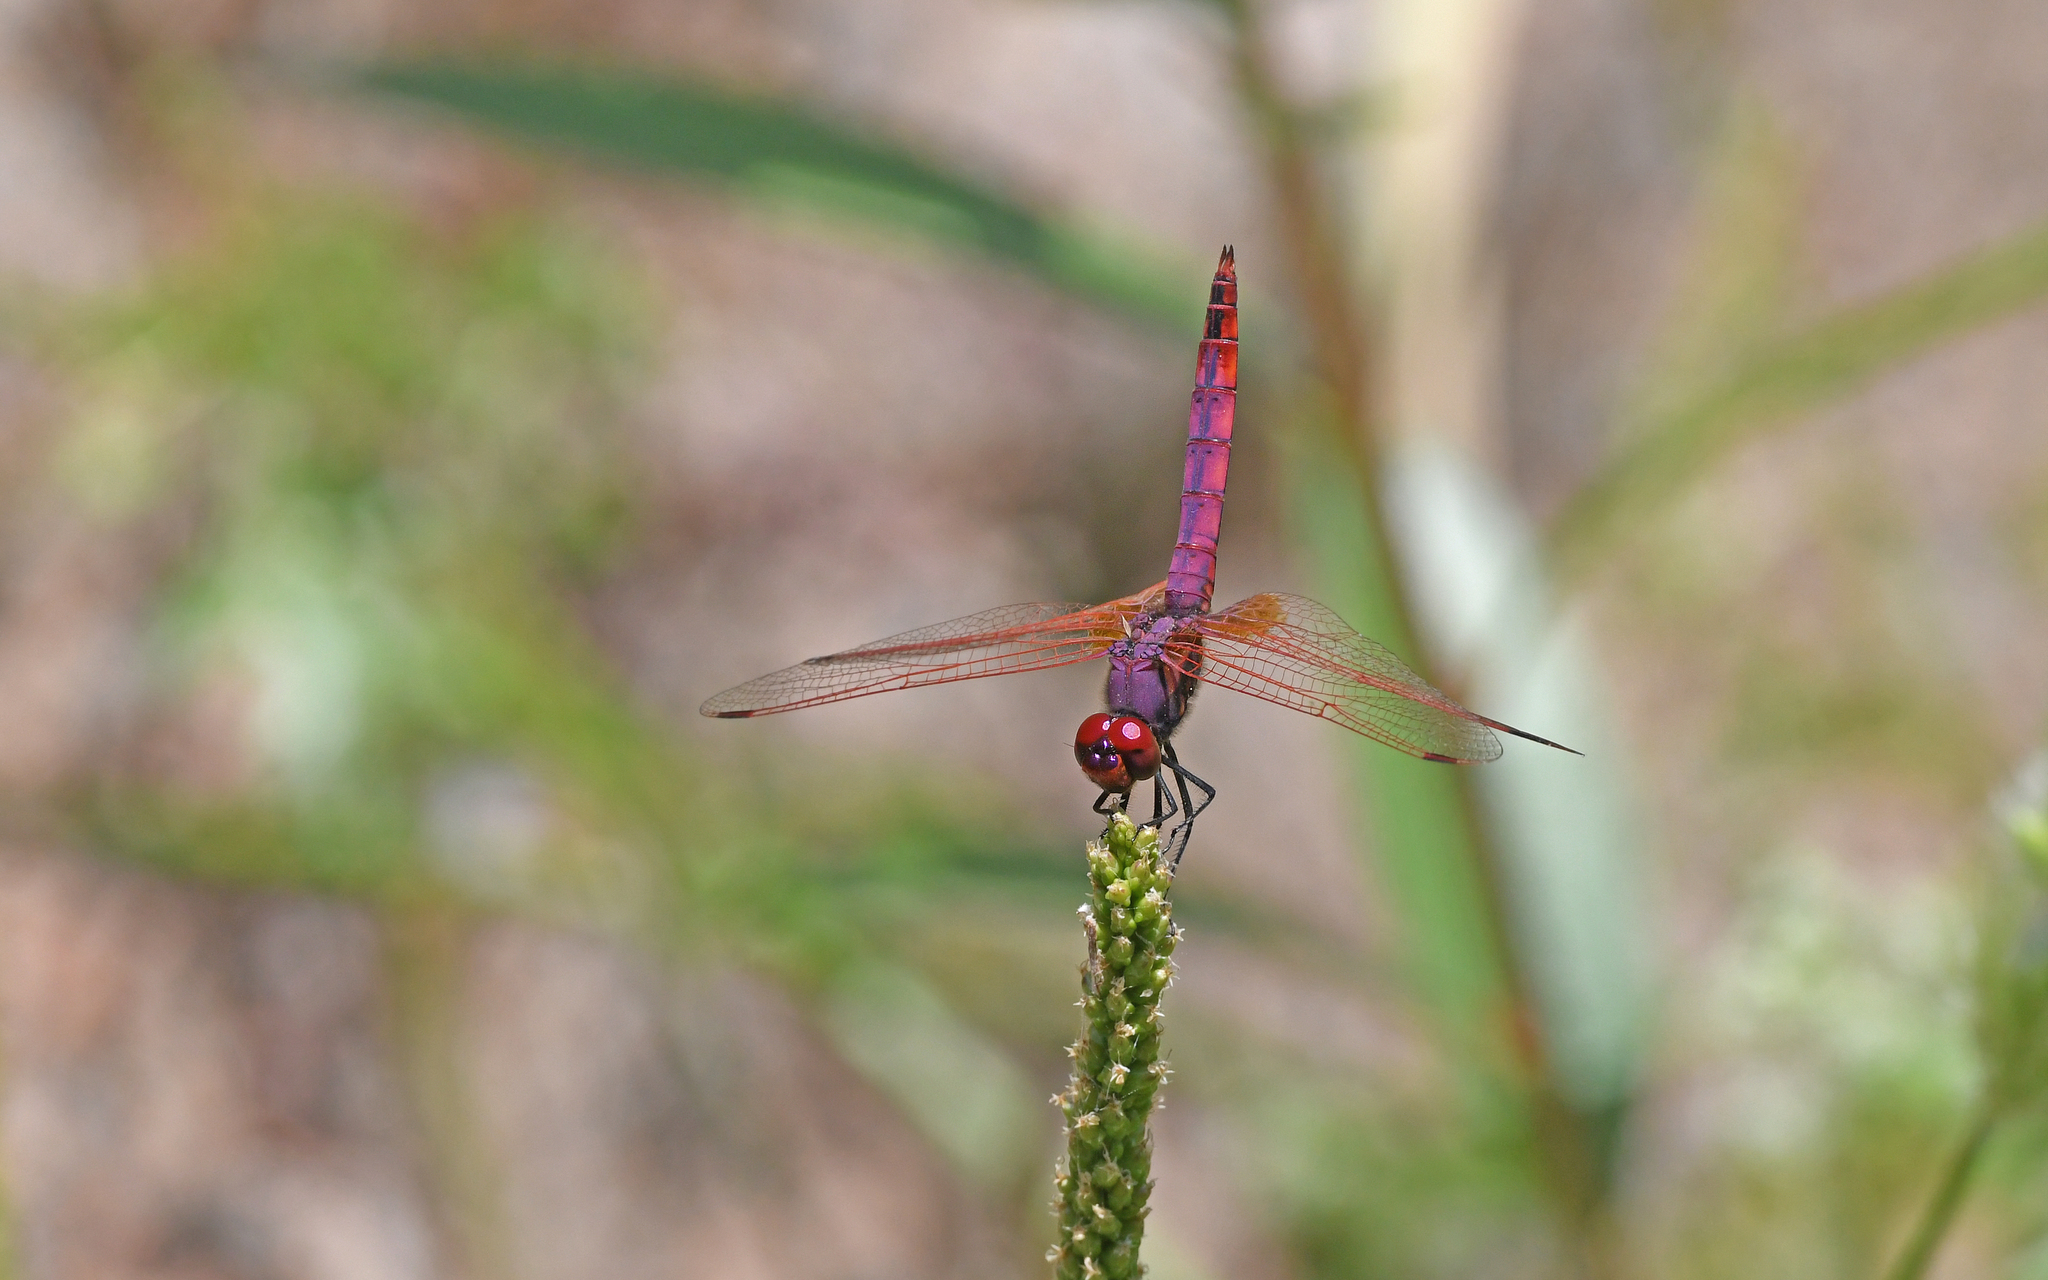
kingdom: Animalia
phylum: Arthropoda
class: Insecta
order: Odonata
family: Libellulidae
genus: Trithemis
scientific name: Trithemis annulata
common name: Violet dropwing
